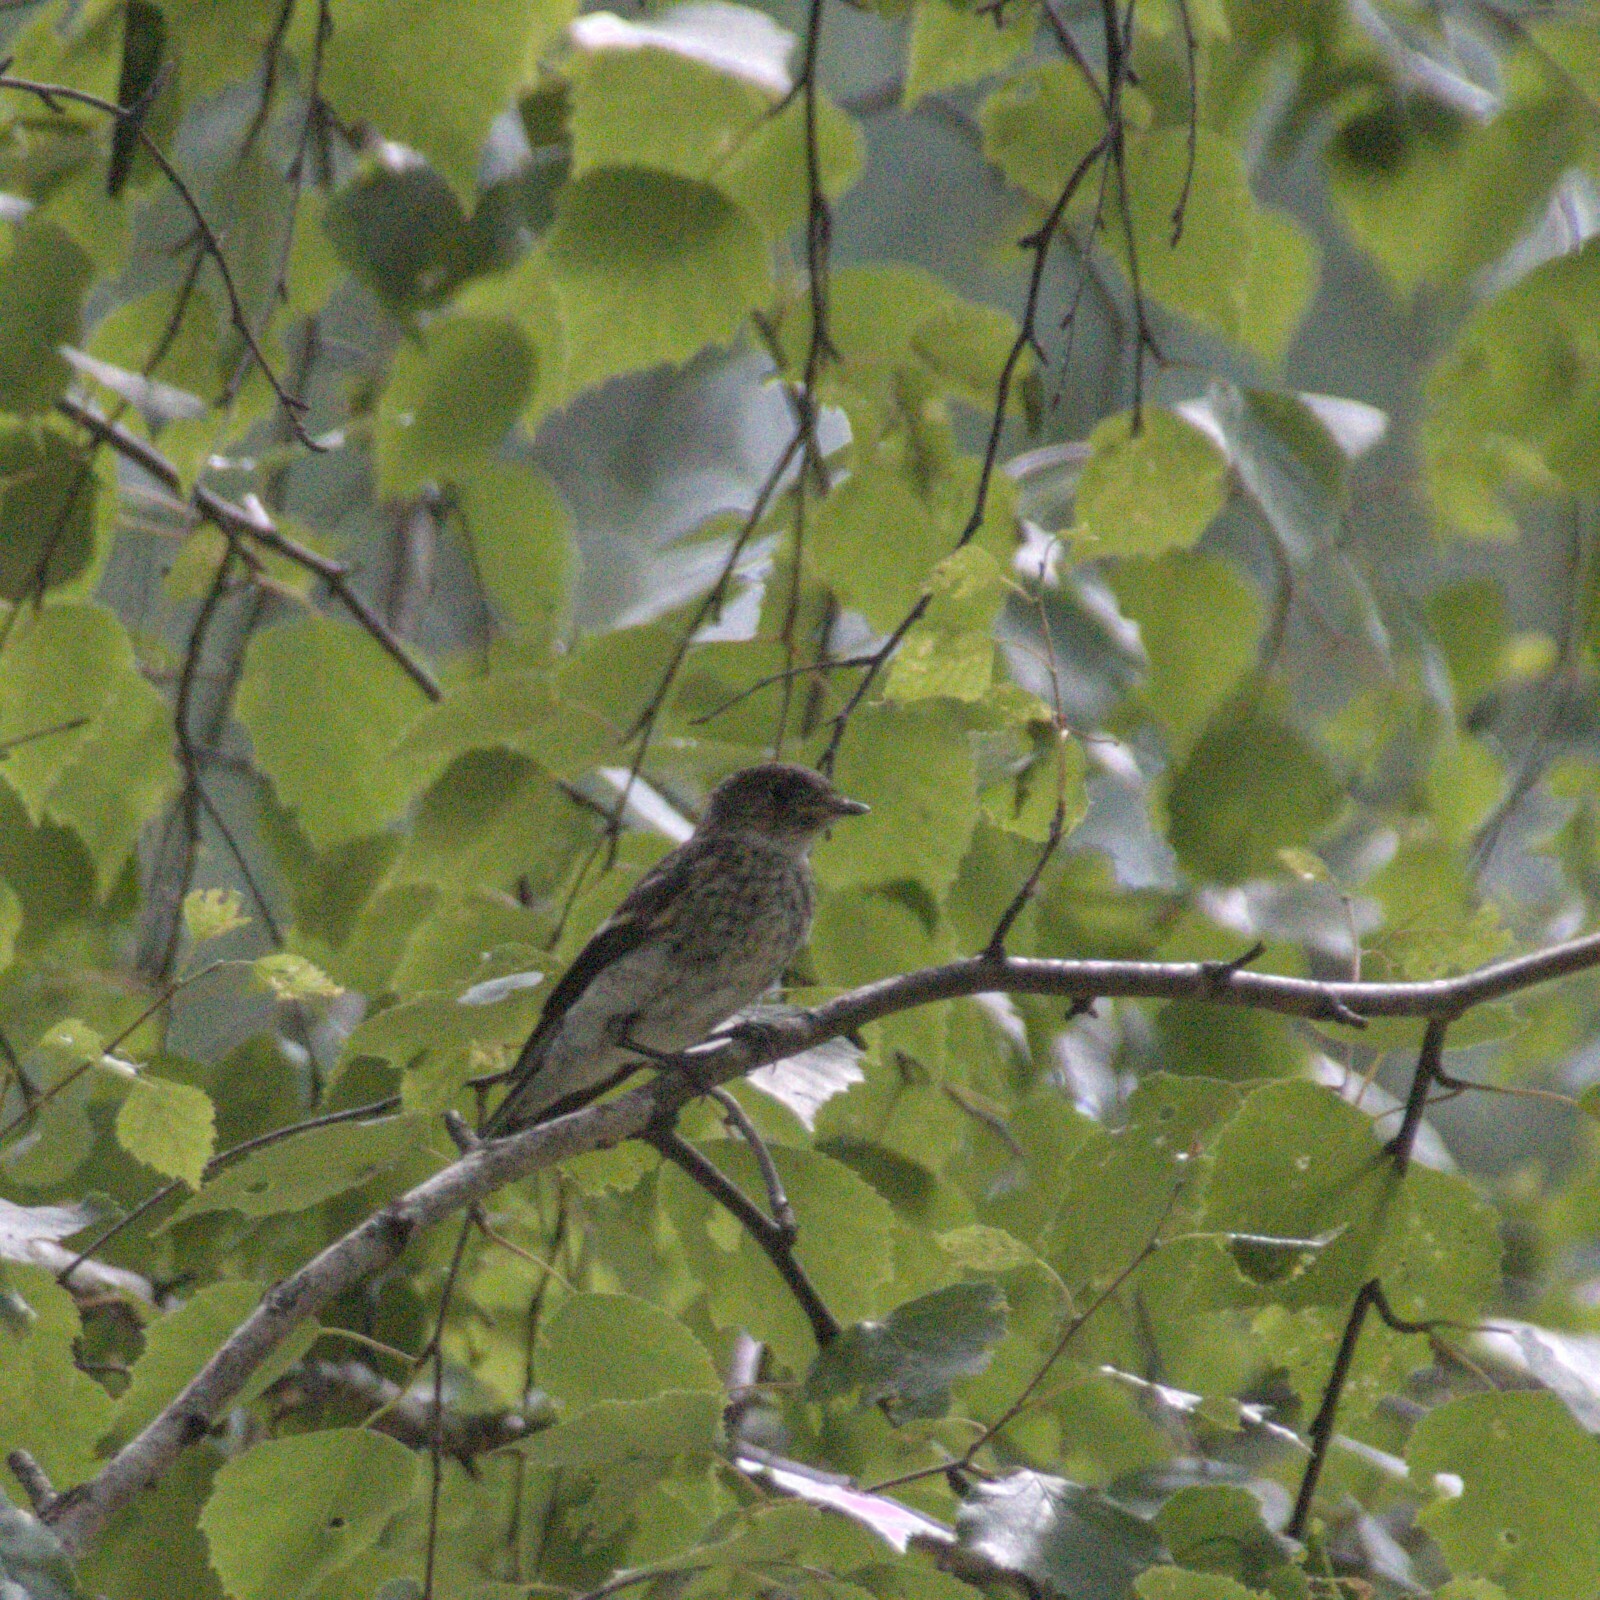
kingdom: Animalia
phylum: Chordata
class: Aves
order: Passeriformes
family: Muscicapidae
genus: Muscicapa
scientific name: Muscicapa striata
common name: Spotted flycatcher
